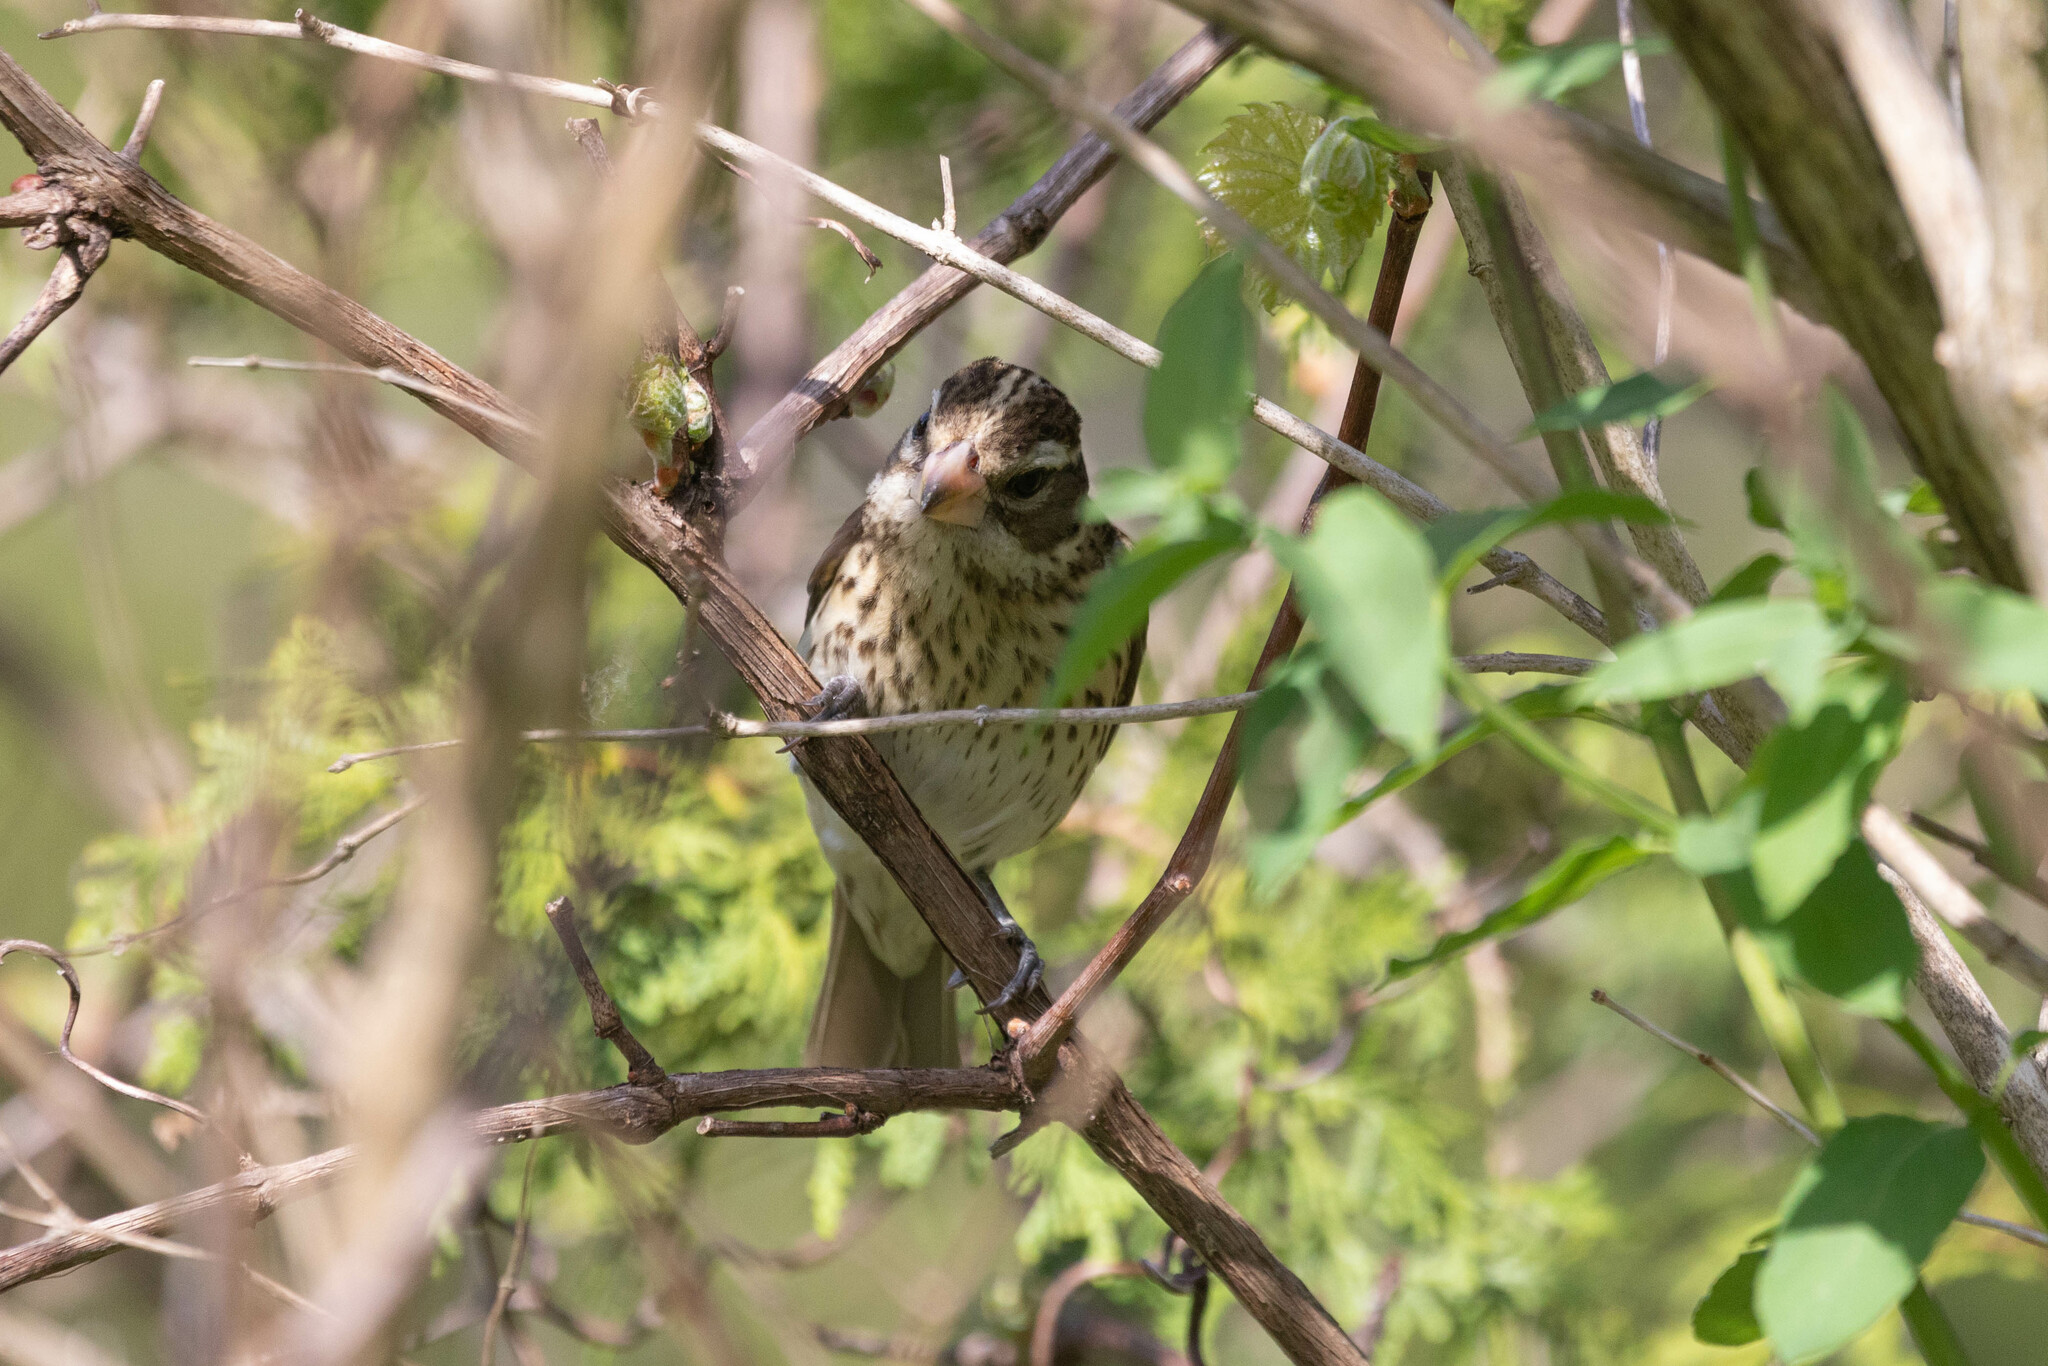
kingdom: Animalia
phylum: Chordata
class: Aves
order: Passeriformes
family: Cardinalidae
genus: Pheucticus
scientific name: Pheucticus ludovicianus
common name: Rose-breasted grosbeak
